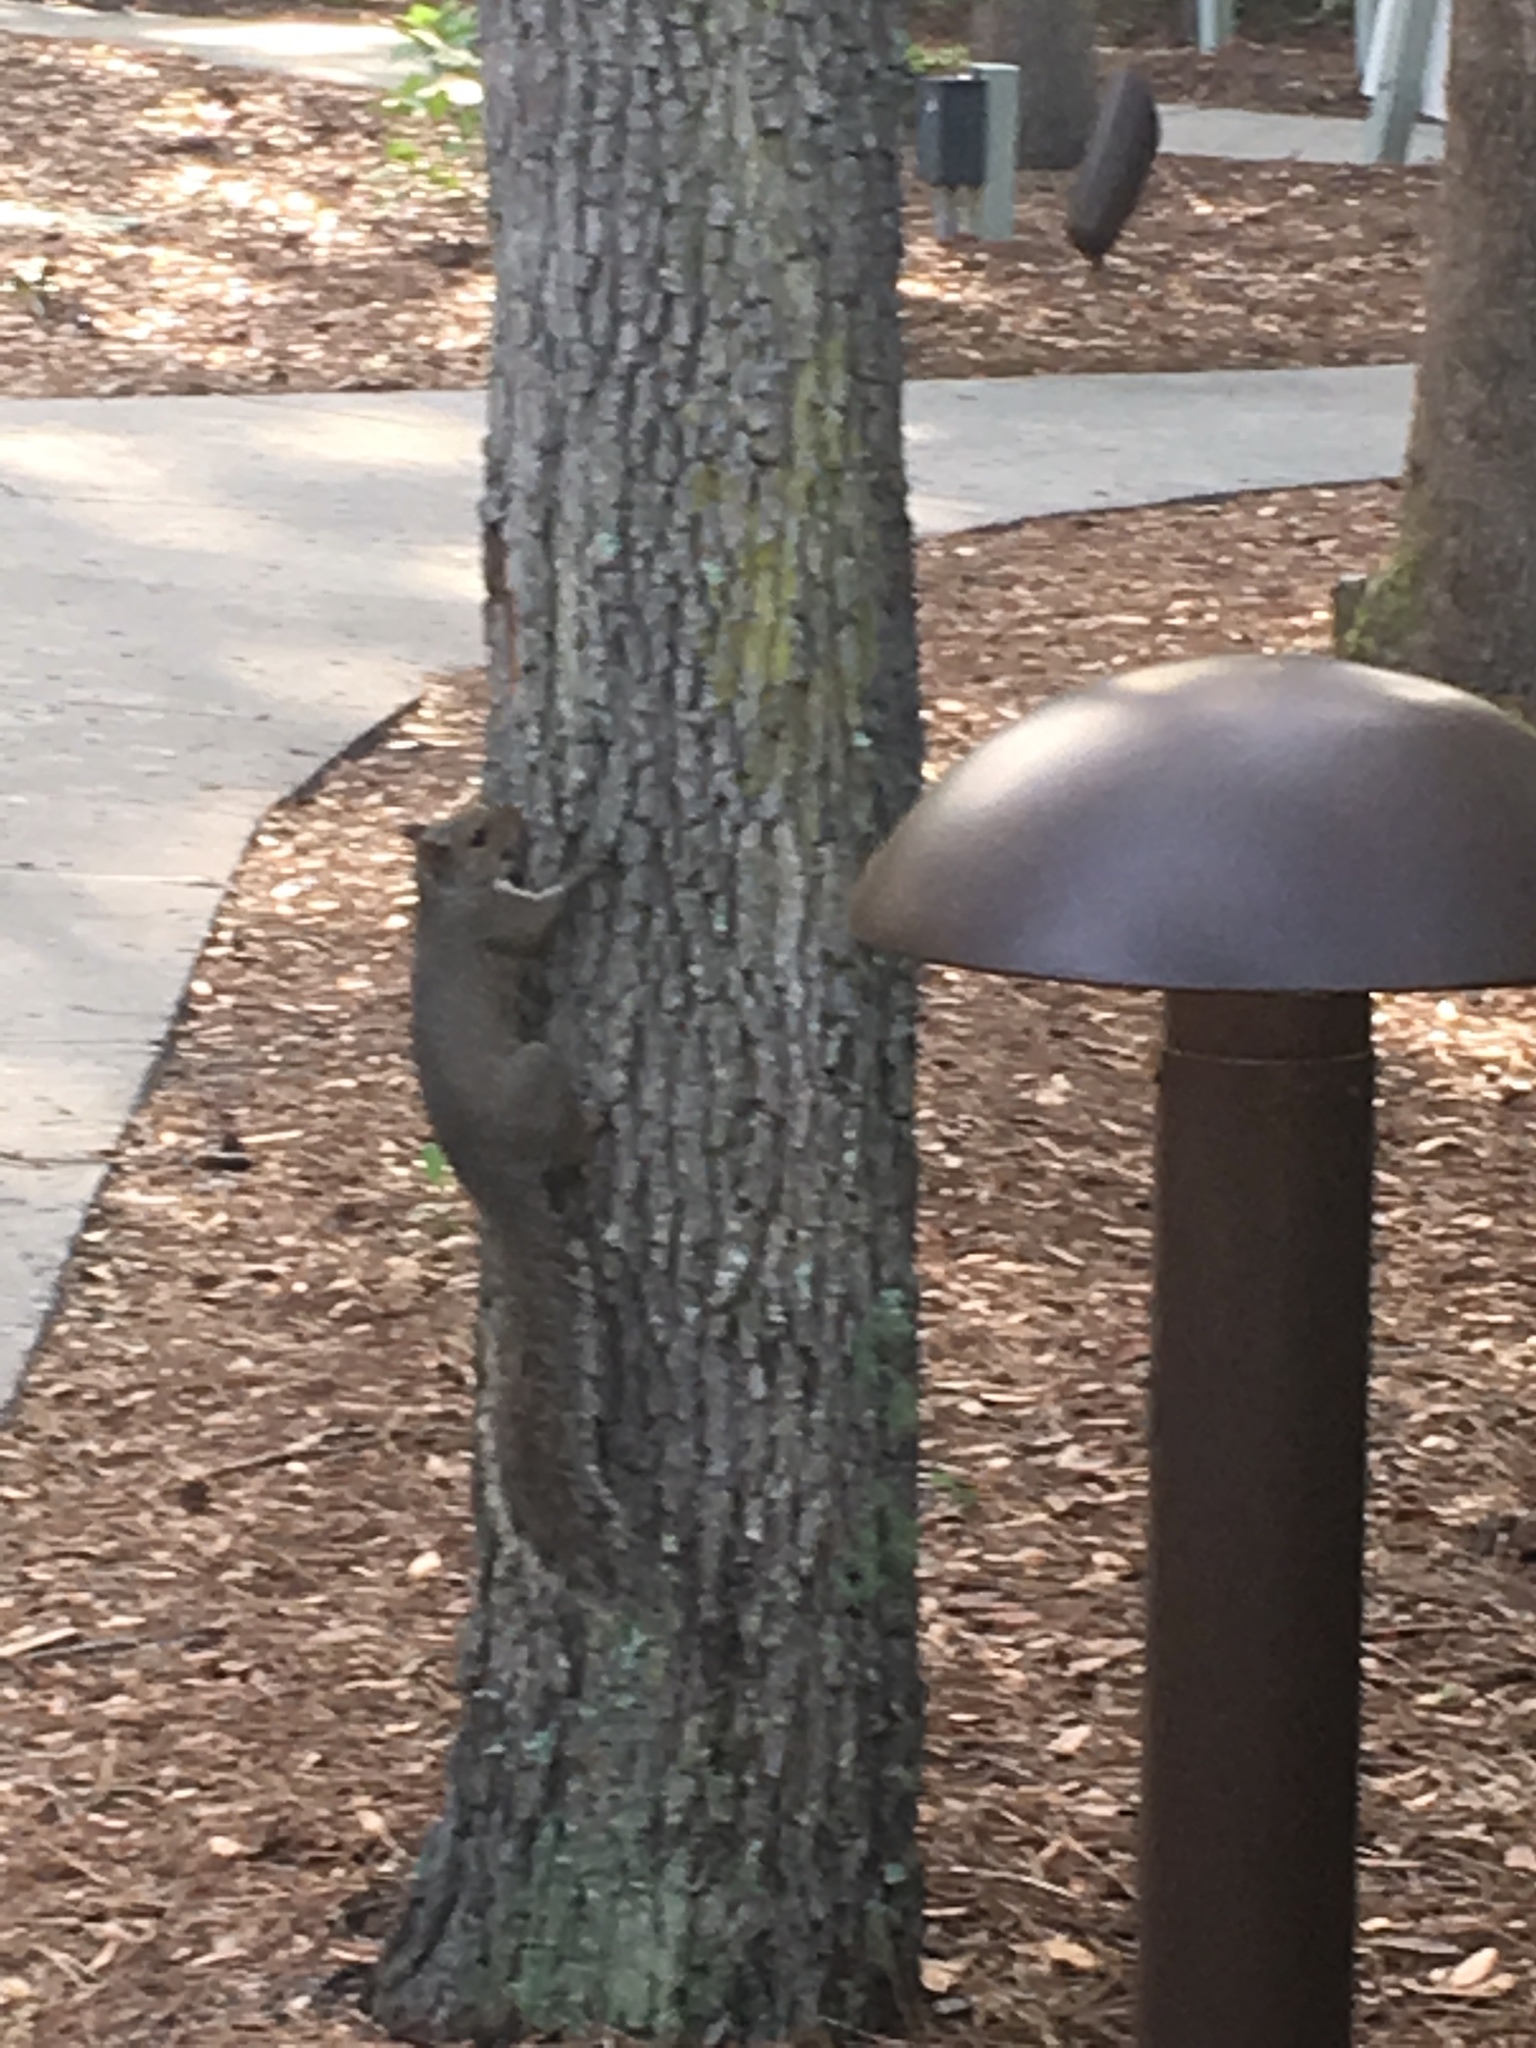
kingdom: Animalia
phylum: Chordata
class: Mammalia
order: Rodentia
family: Sciuridae
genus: Sciurus
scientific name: Sciurus carolinensis
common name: Eastern gray squirrel
